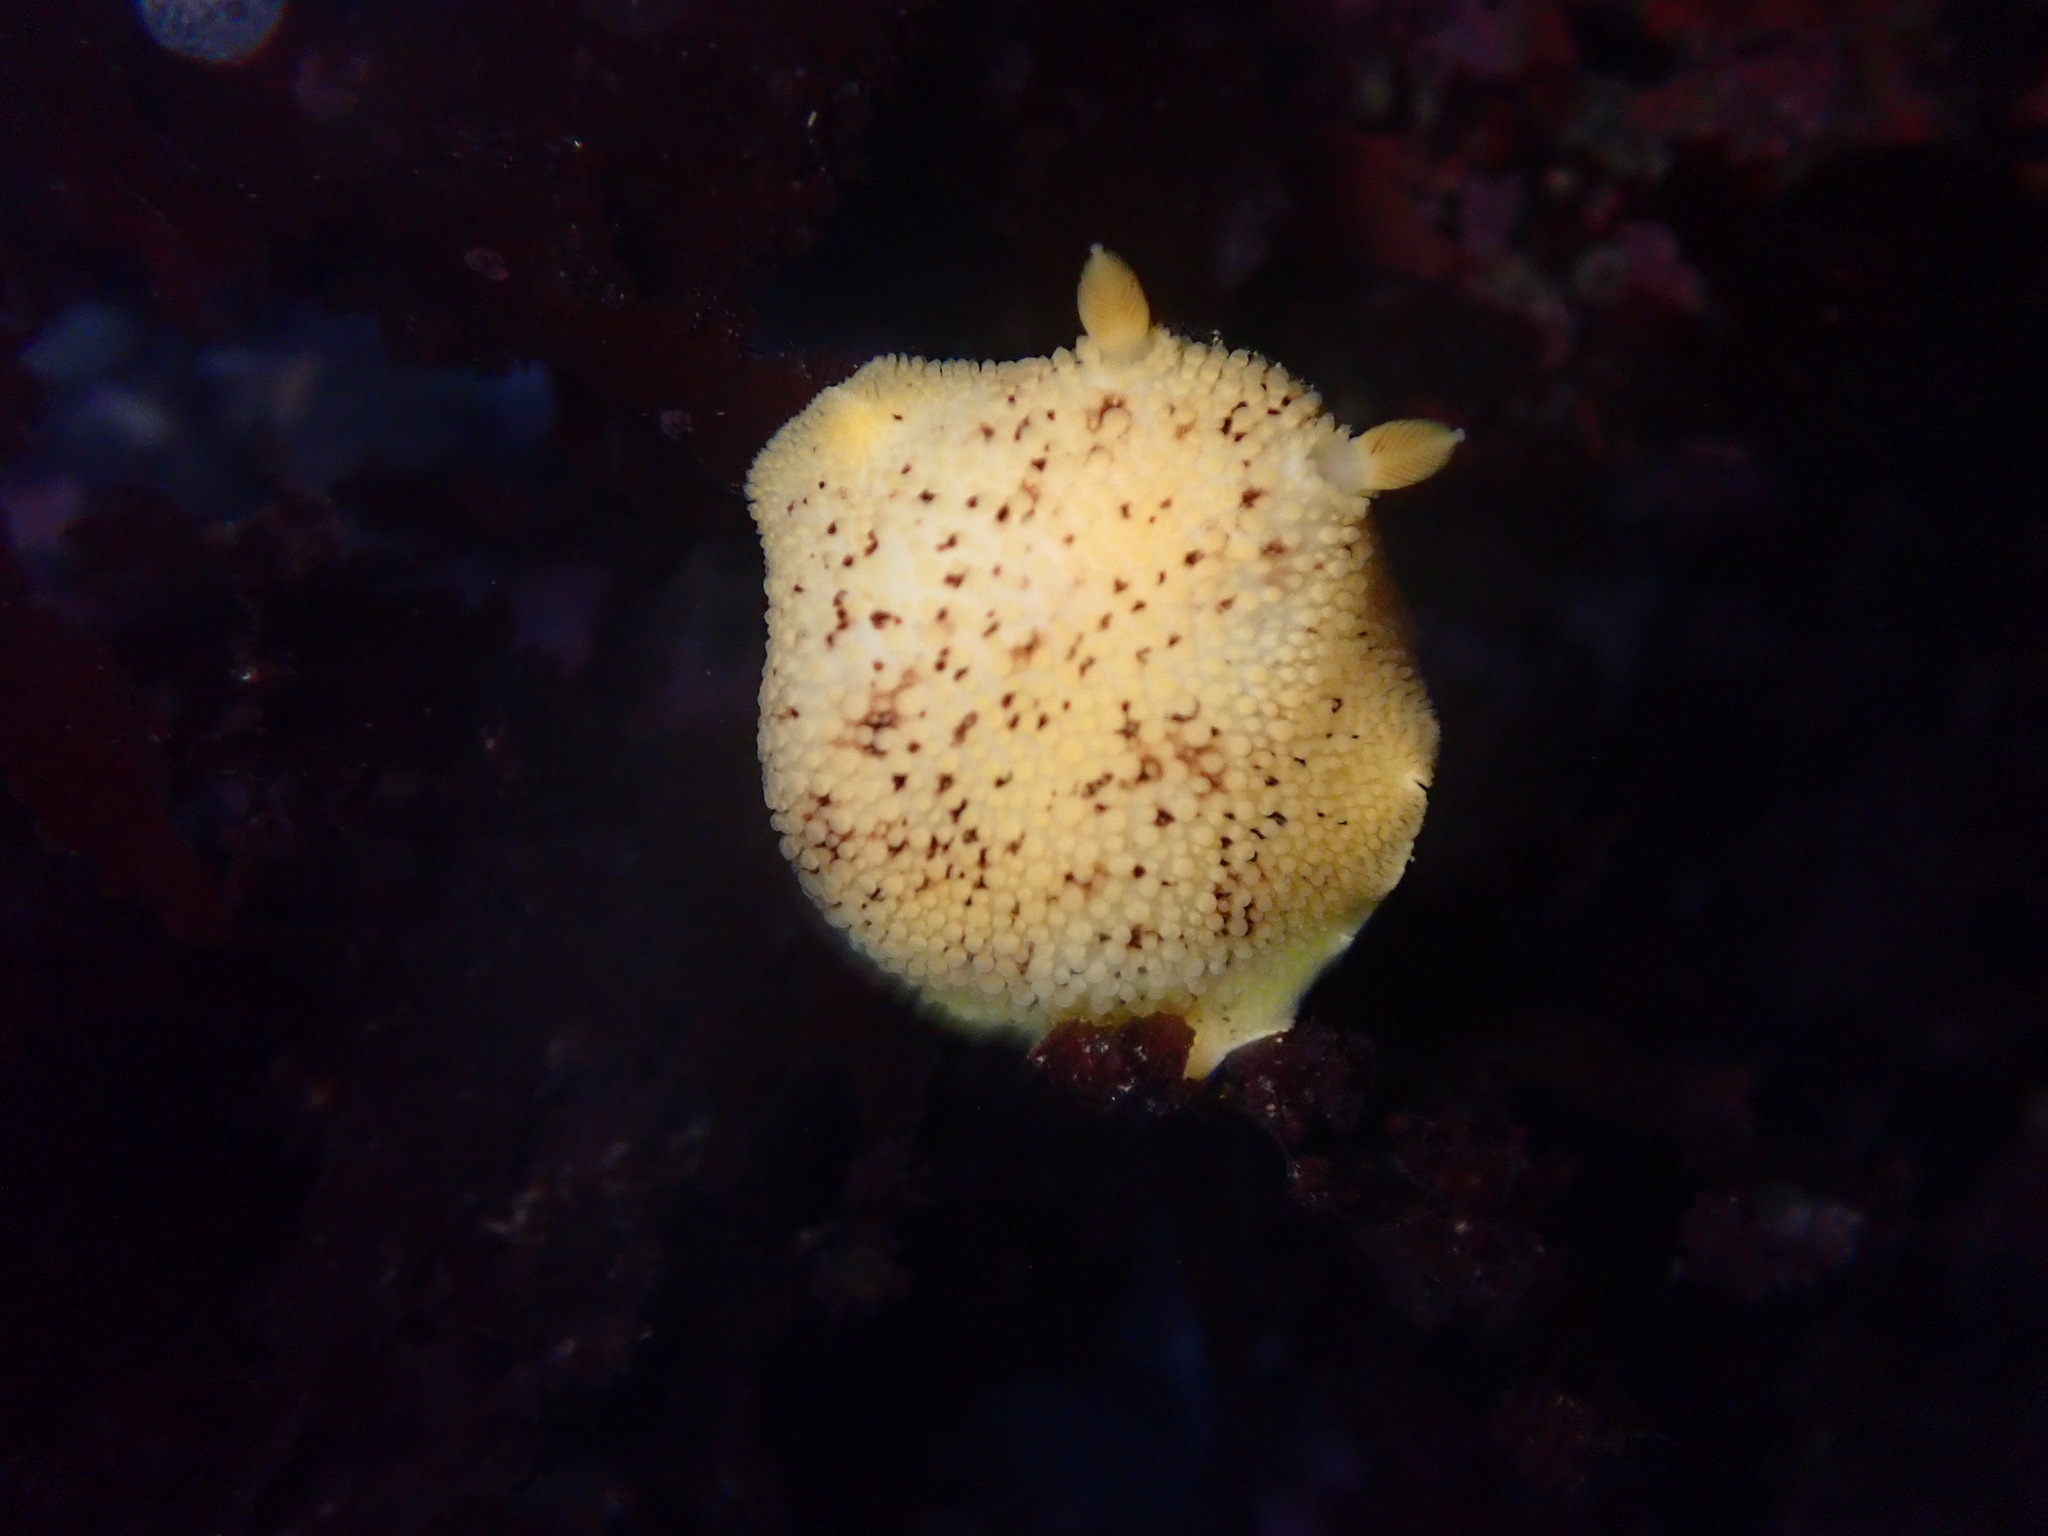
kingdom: Animalia
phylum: Mollusca
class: Gastropoda
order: Nudibranchia
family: Discodorididae
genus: Peltodoris
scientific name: Peltodoris nobilis
